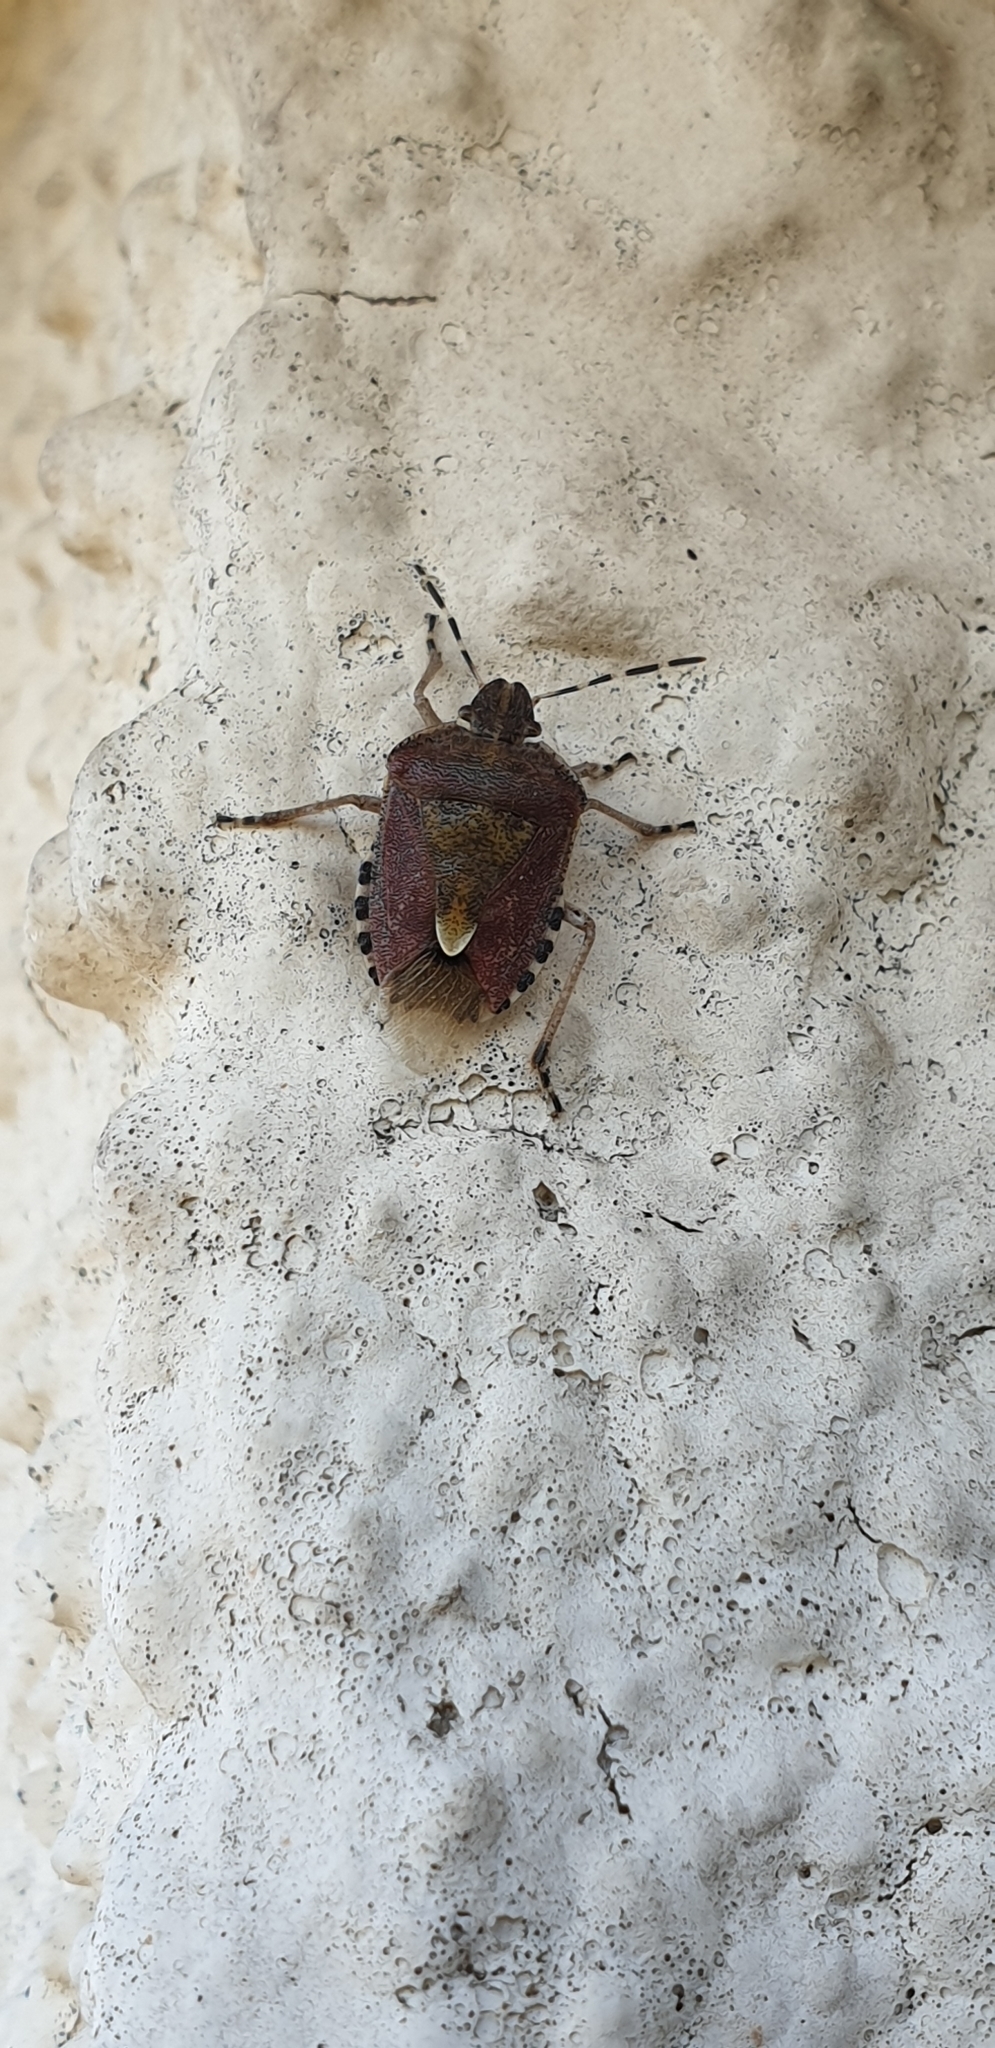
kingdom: Animalia
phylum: Arthropoda
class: Insecta
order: Hemiptera
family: Pentatomidae
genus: Dolycoris
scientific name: Dolycoris baccarum
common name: Sloe bug
